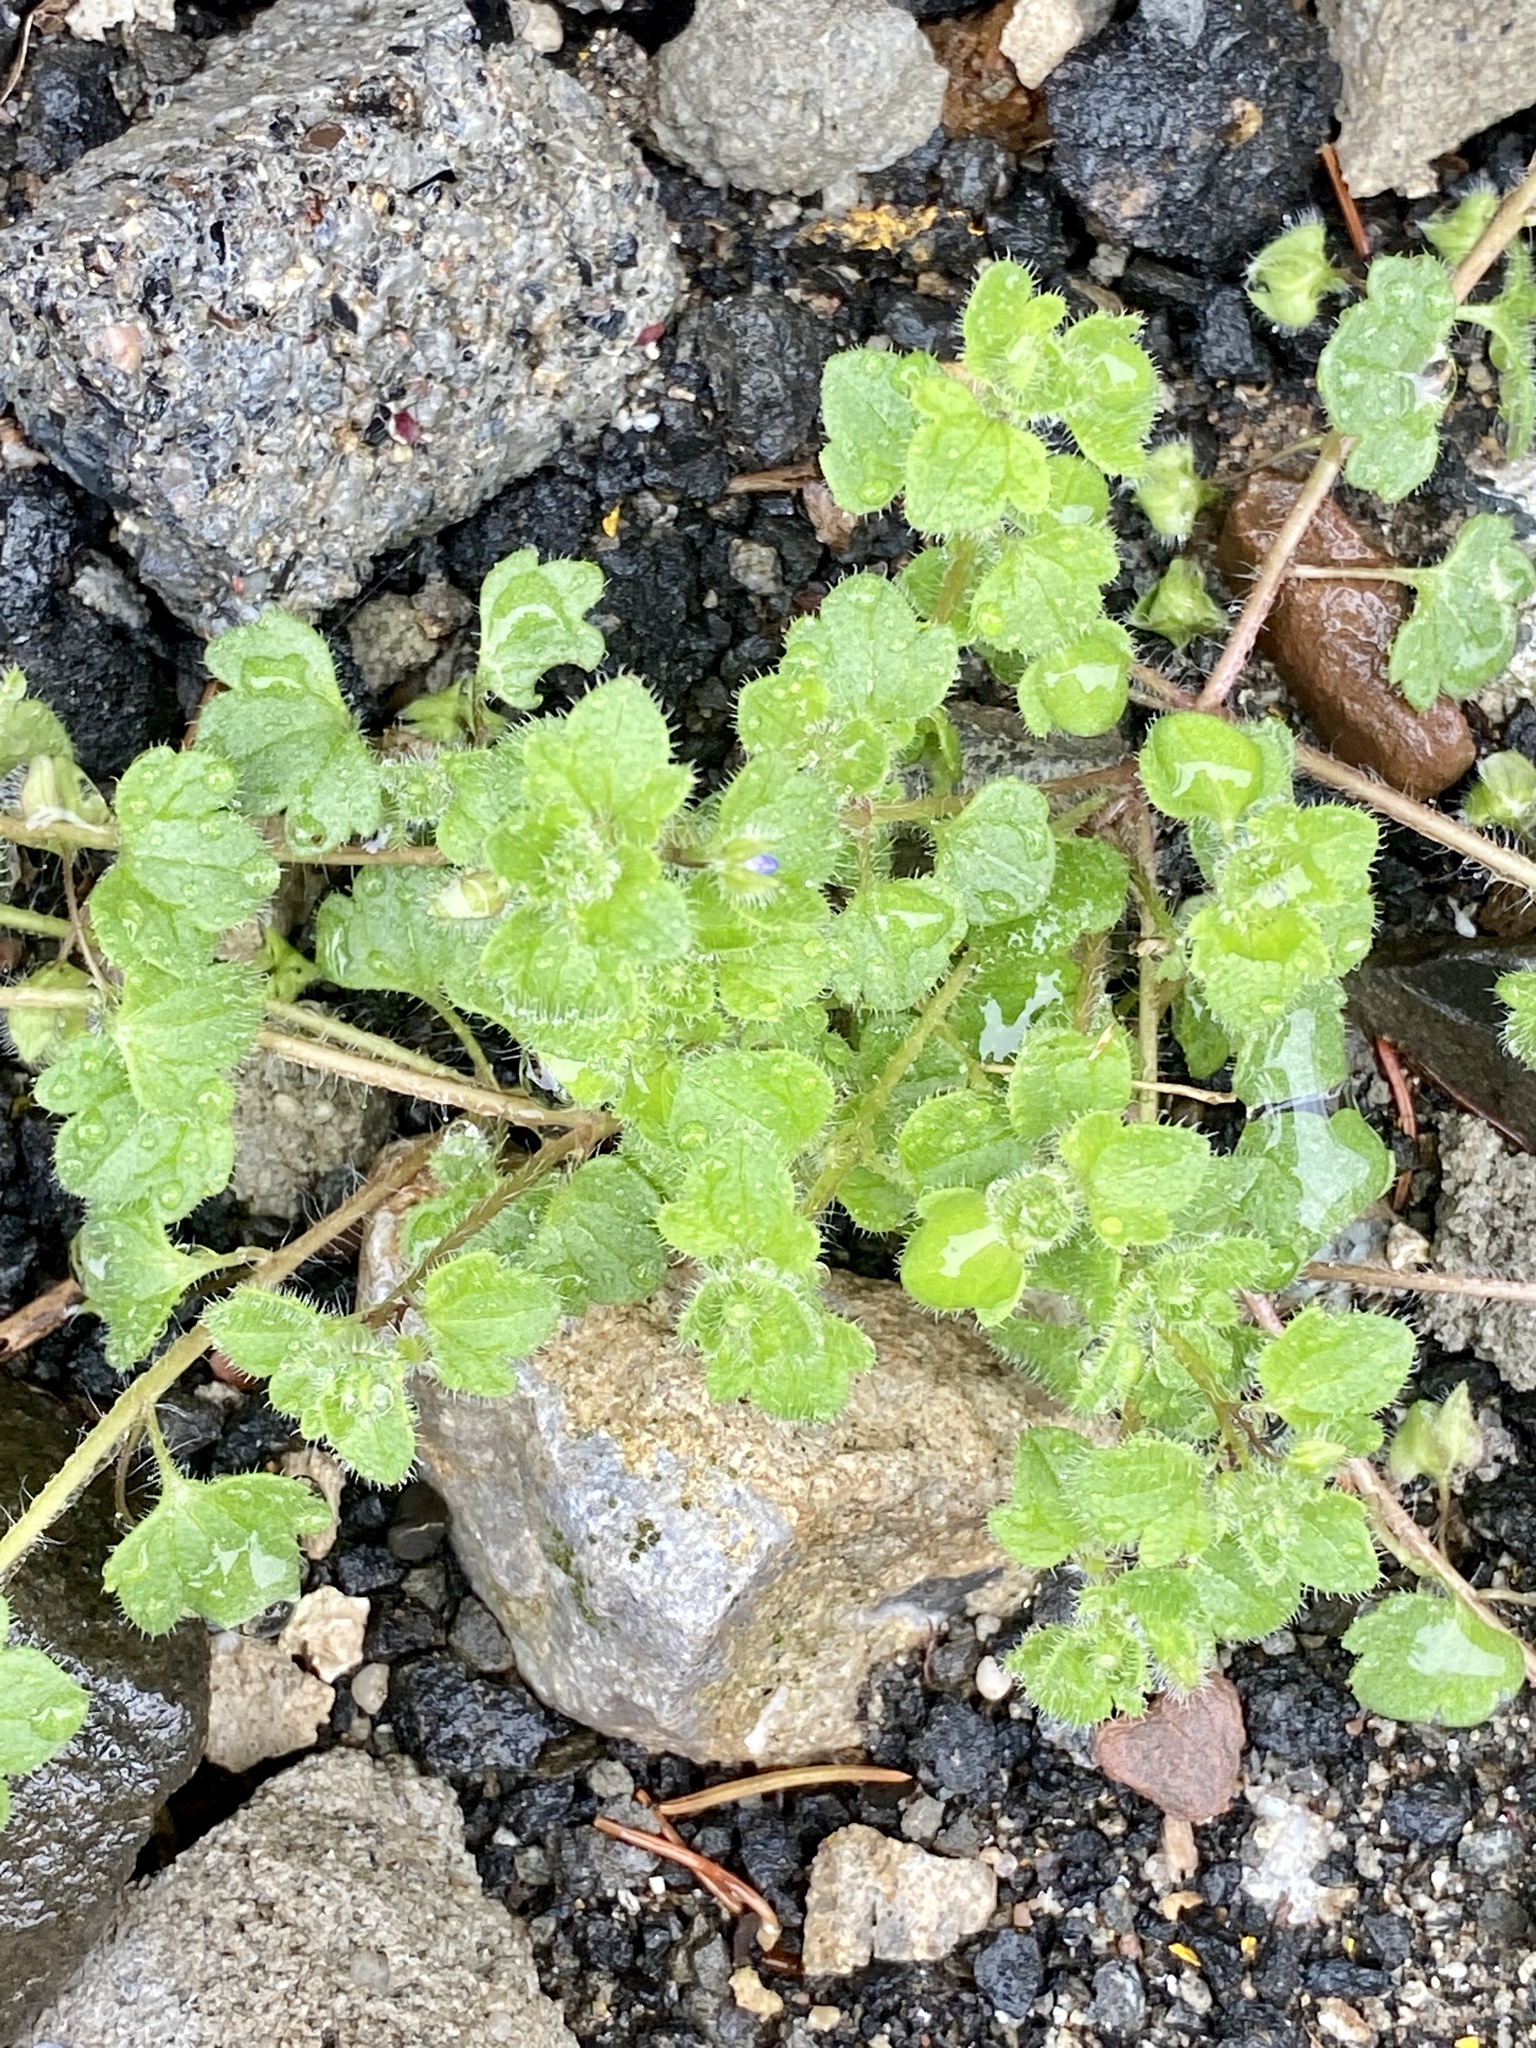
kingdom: Plantae
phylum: Tracheophyta
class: Magnoliopsida
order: Lamiales
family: Plantaginaceae
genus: Veronica
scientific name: Veronica hederifolia
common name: Ivy-leaved speedwell
